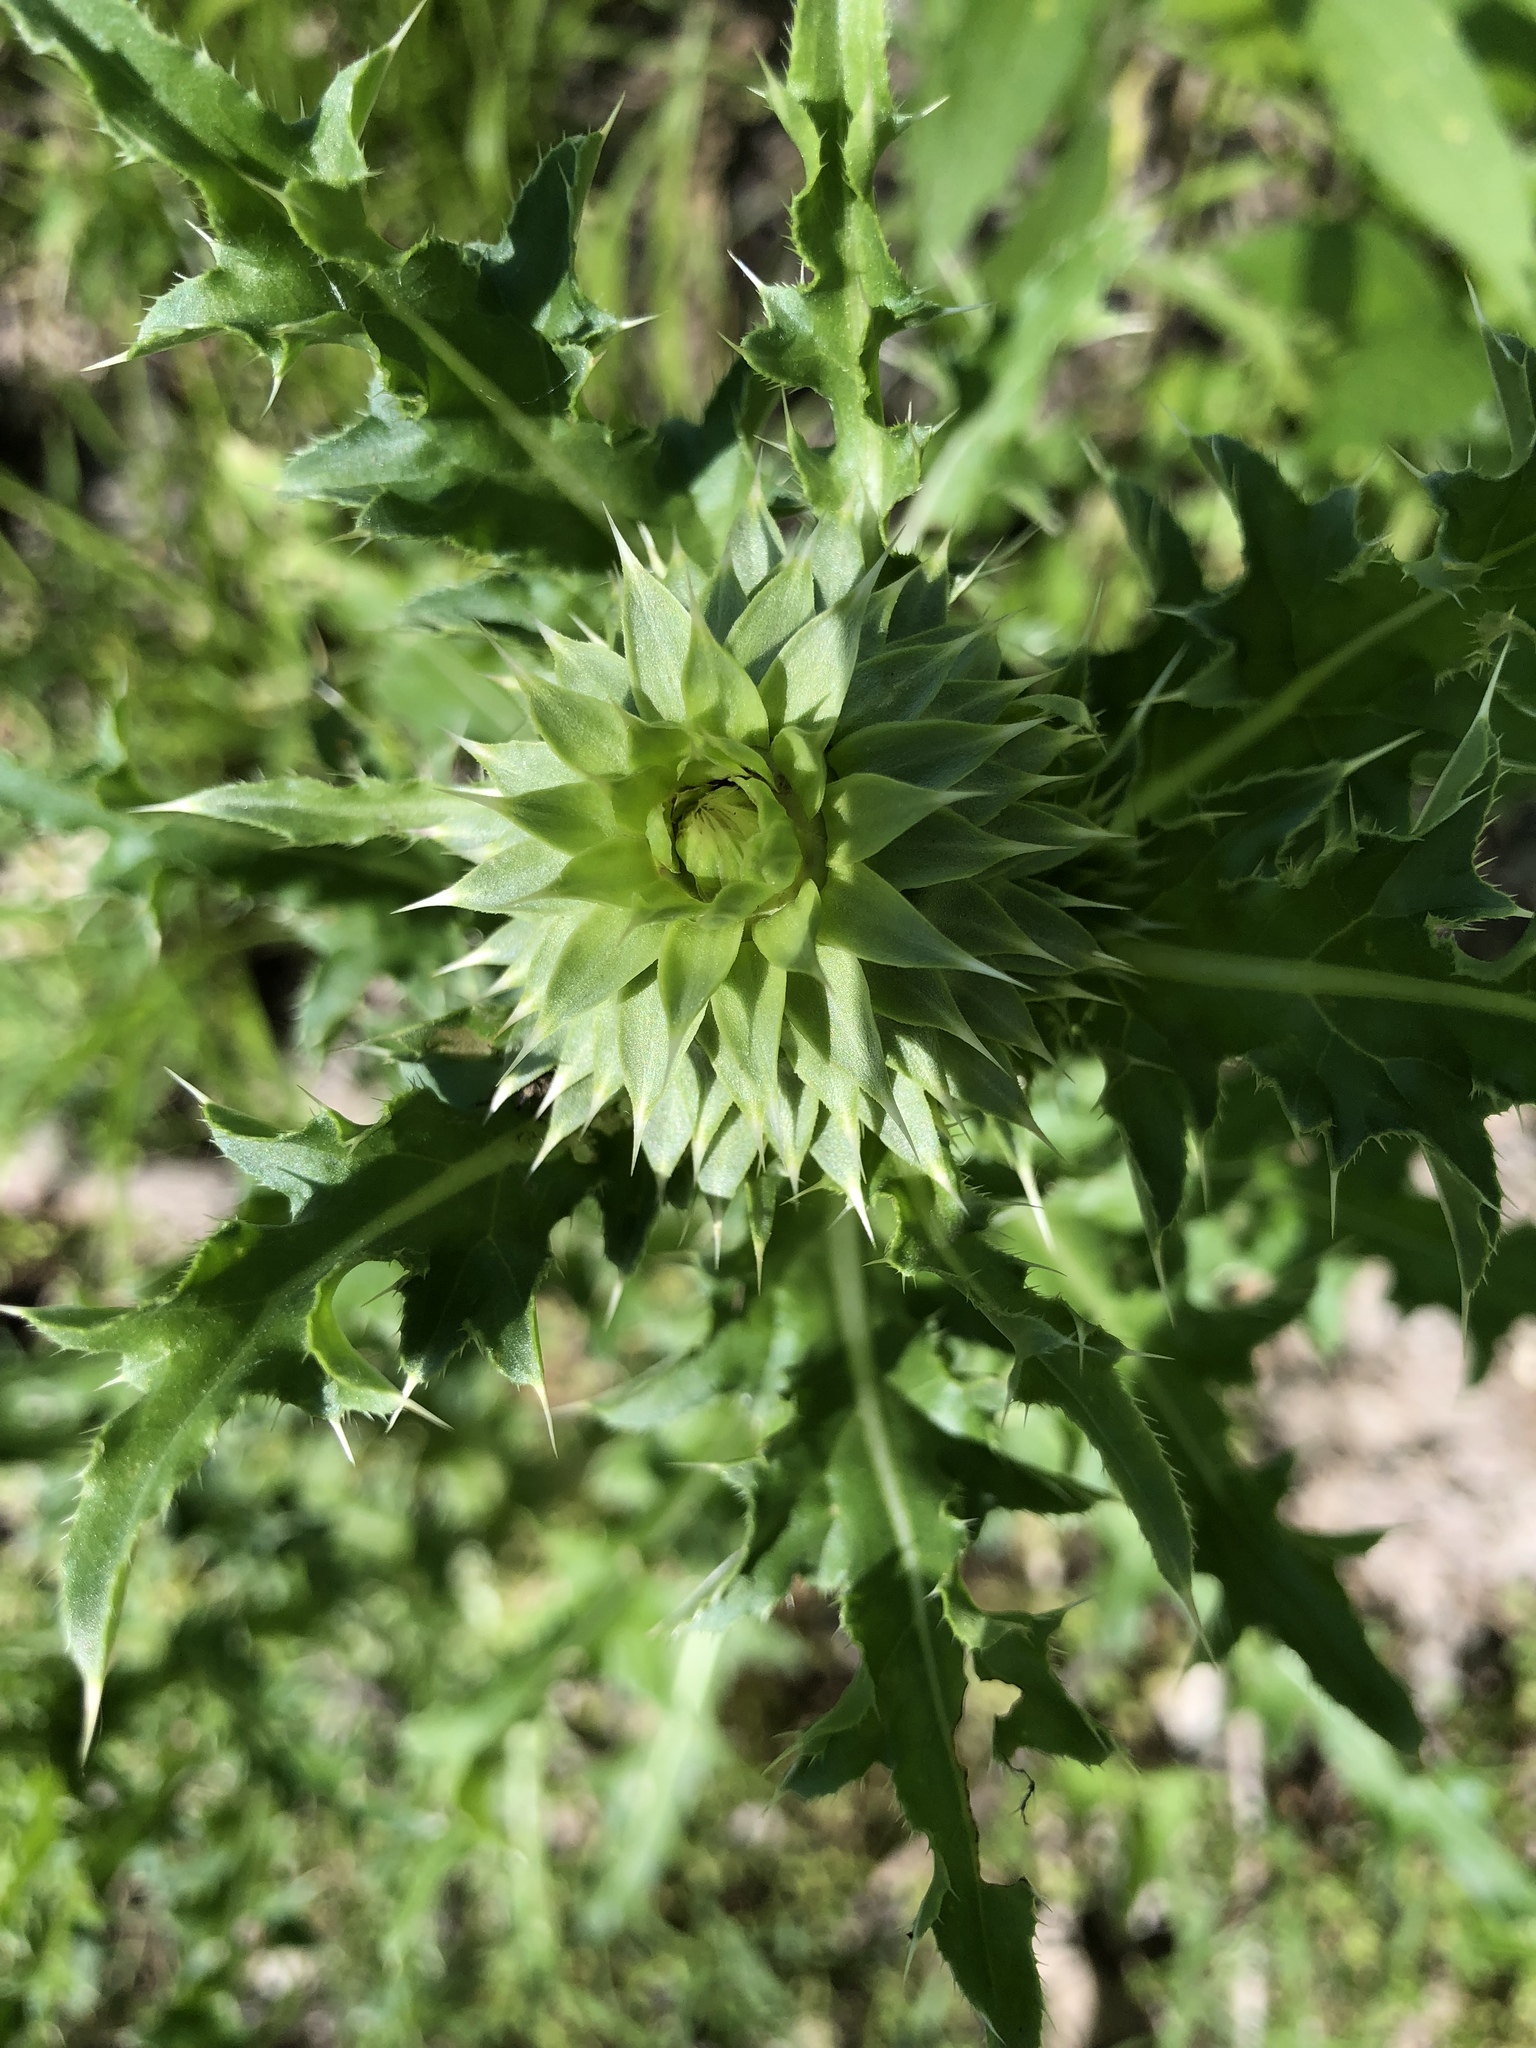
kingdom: Plantae
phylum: Tracheophyta
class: Magnoliopsida
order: Asterales
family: Asteraceae
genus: Carduus
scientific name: Carduus nutans
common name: Musk thistle
